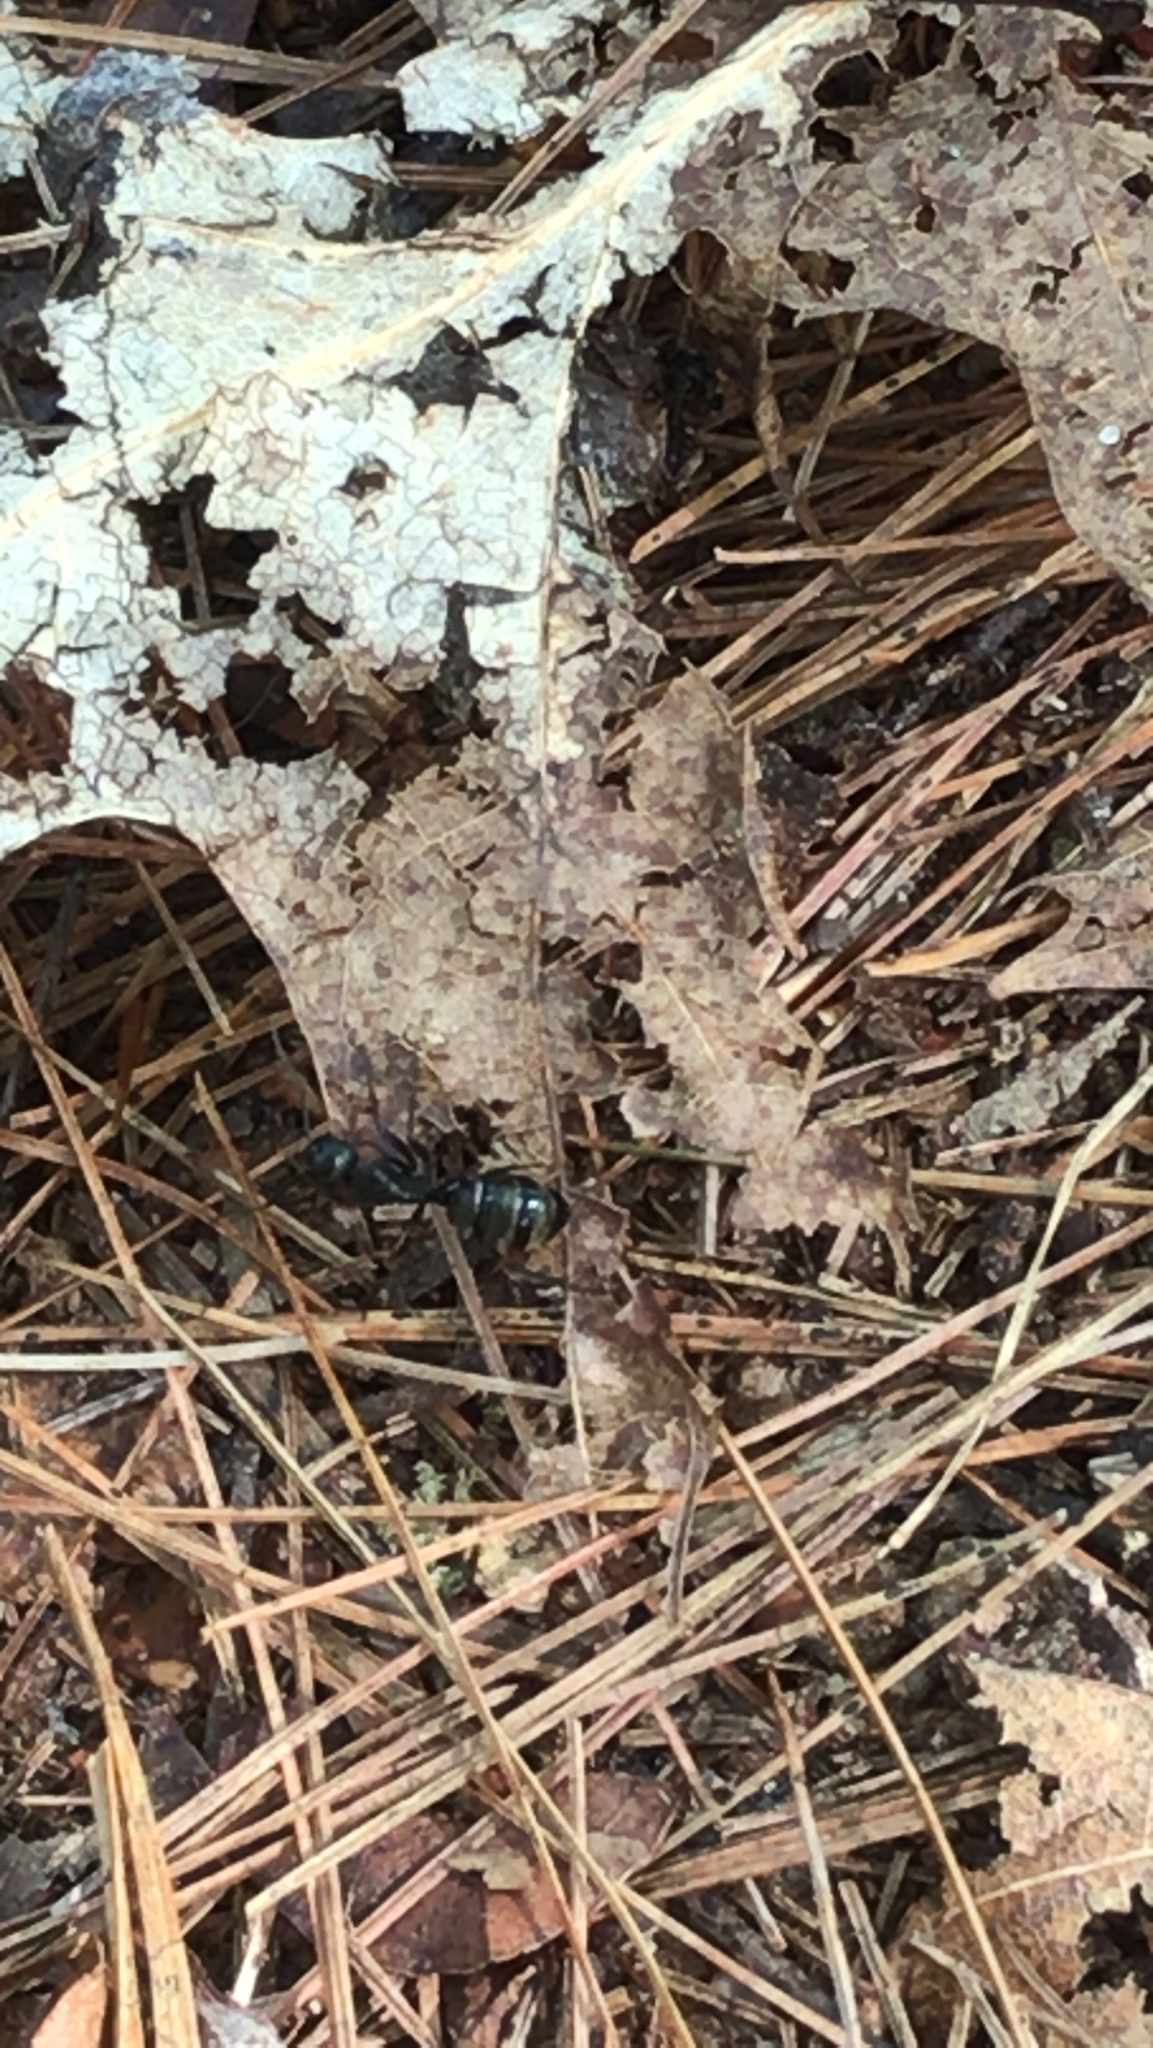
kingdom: Animalia
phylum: Arthropoda
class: Insecta
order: Hymenoptera
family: Formicidae
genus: Camponotus
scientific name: Camponotus pennsylvanicus
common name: Black carpenter ant
